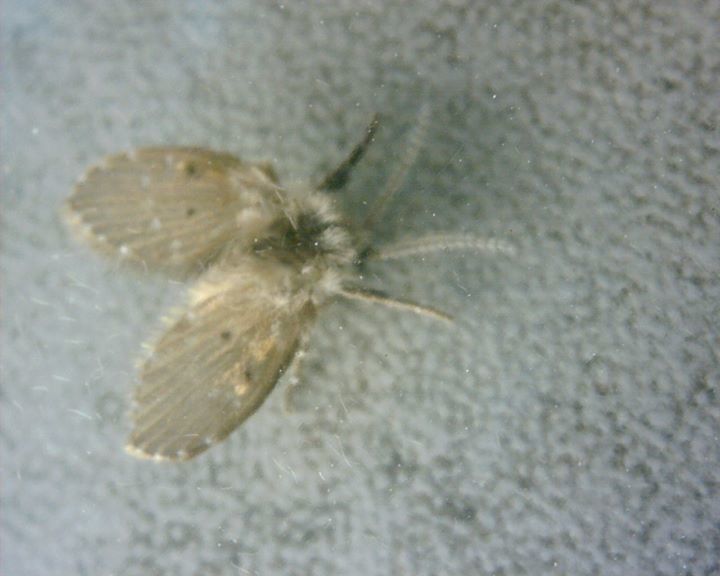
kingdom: Animalia
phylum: Arthropoda
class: Insecta
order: Diptera
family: Psychodidae
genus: Clogmia
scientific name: Clogmia albipunctatus
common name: White-spotted moth fly
